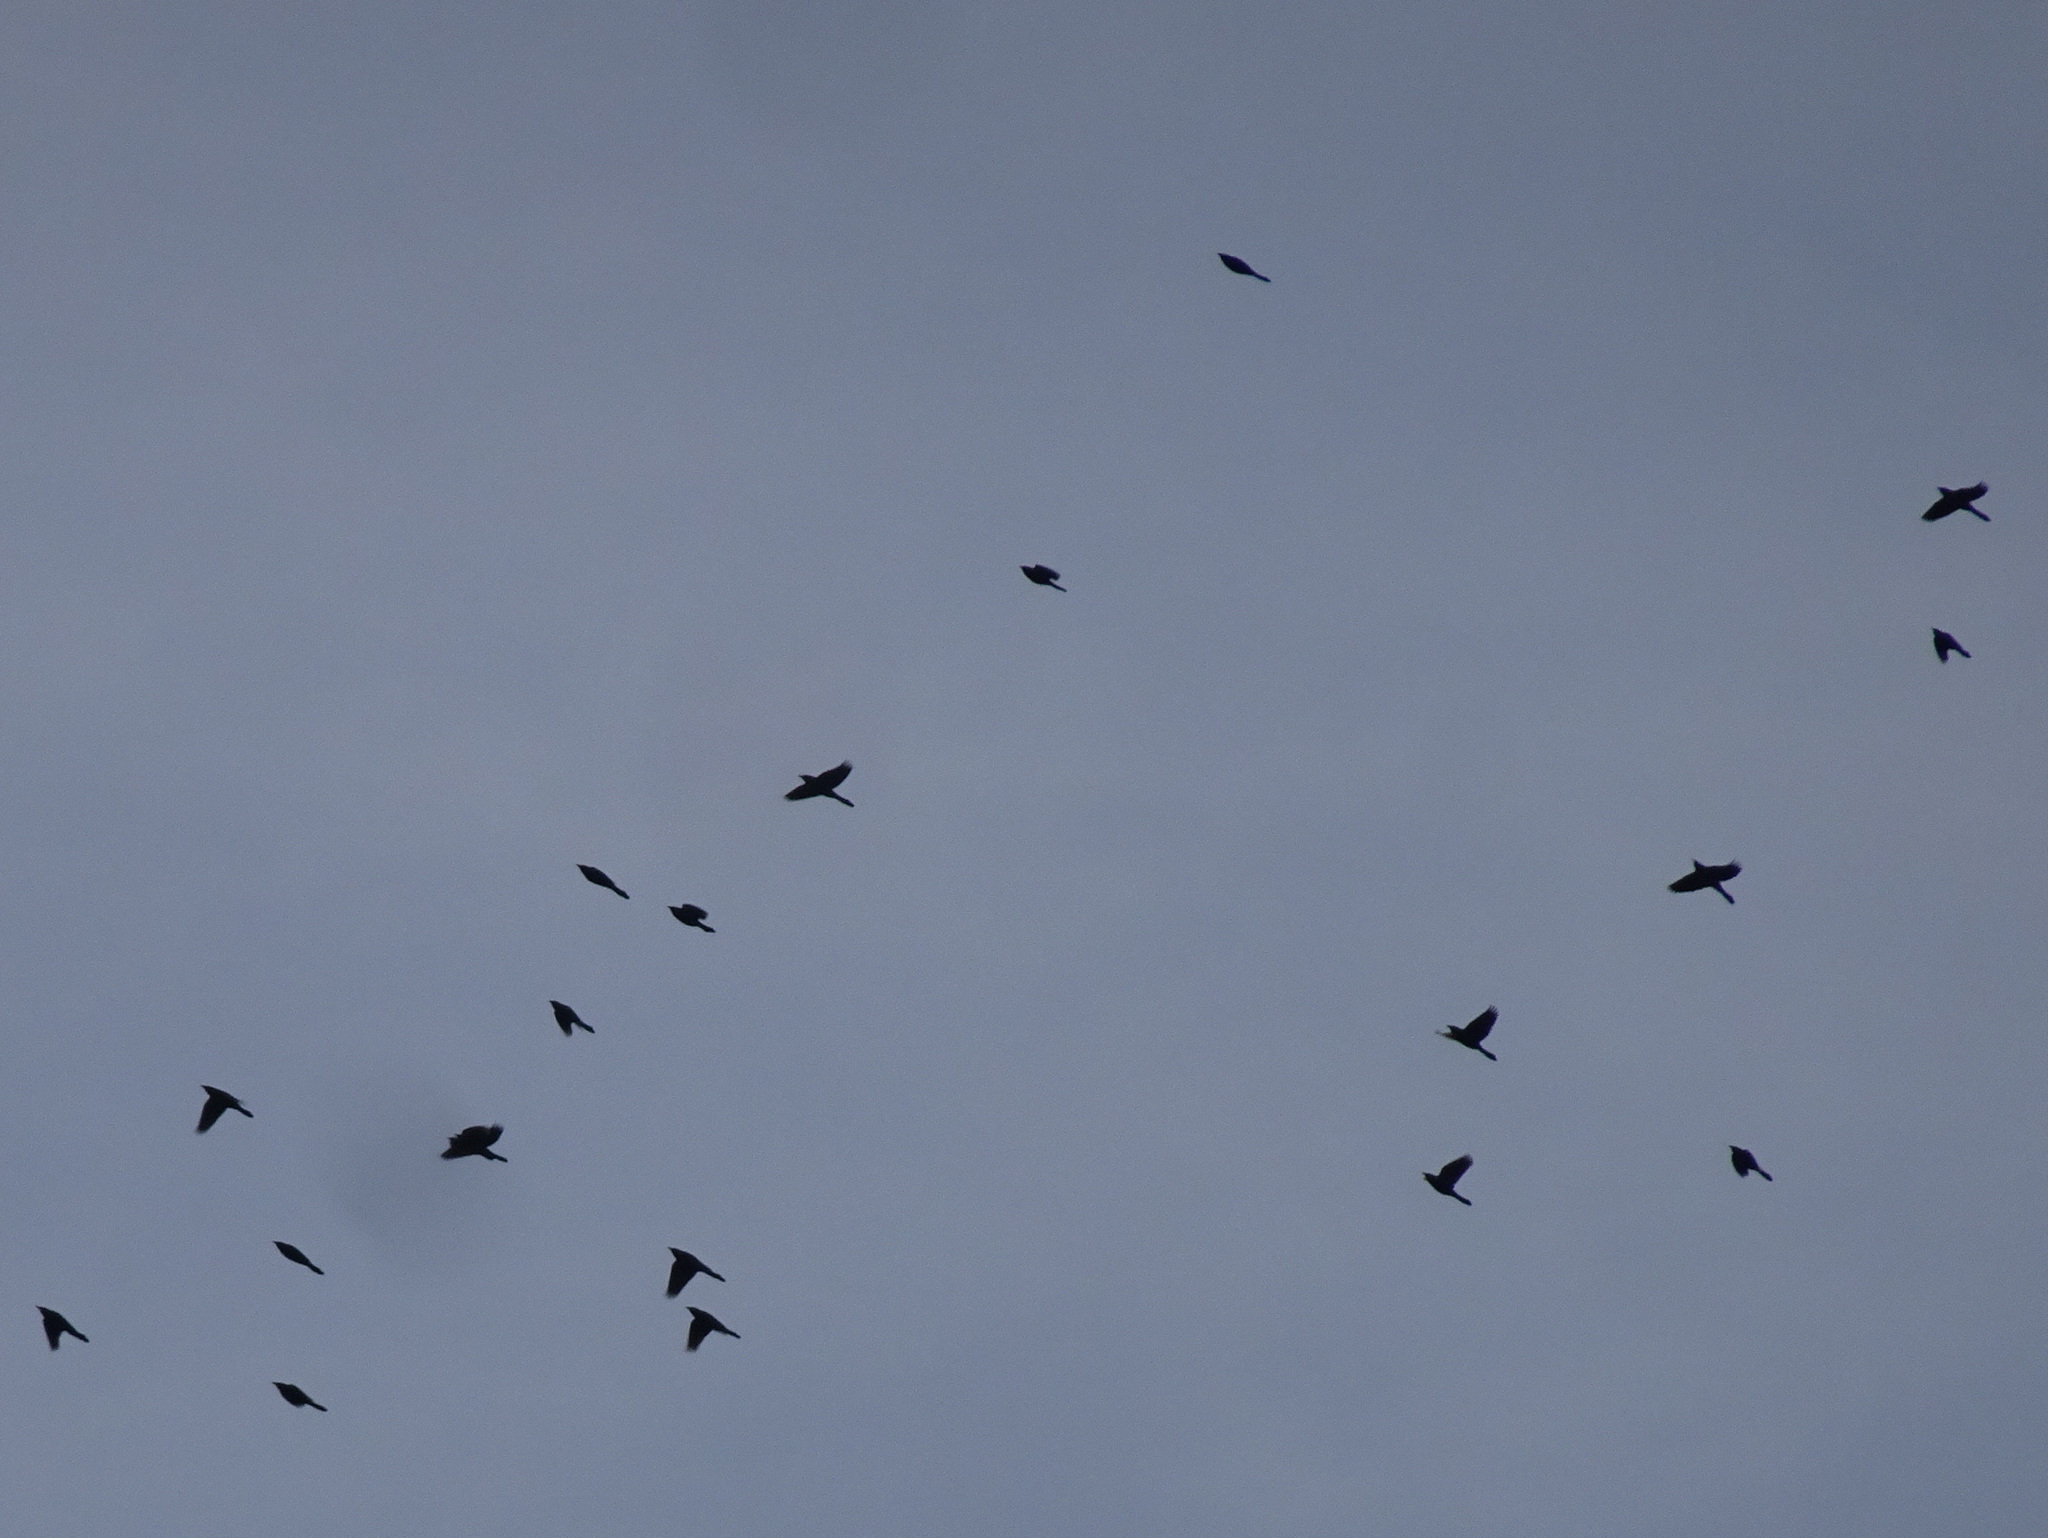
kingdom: Animalia
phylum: Chordata
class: Aves
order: Passeriformes
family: Icteridae
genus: Quiscalus
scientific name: Quiscalus quiscula
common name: Common grackle
